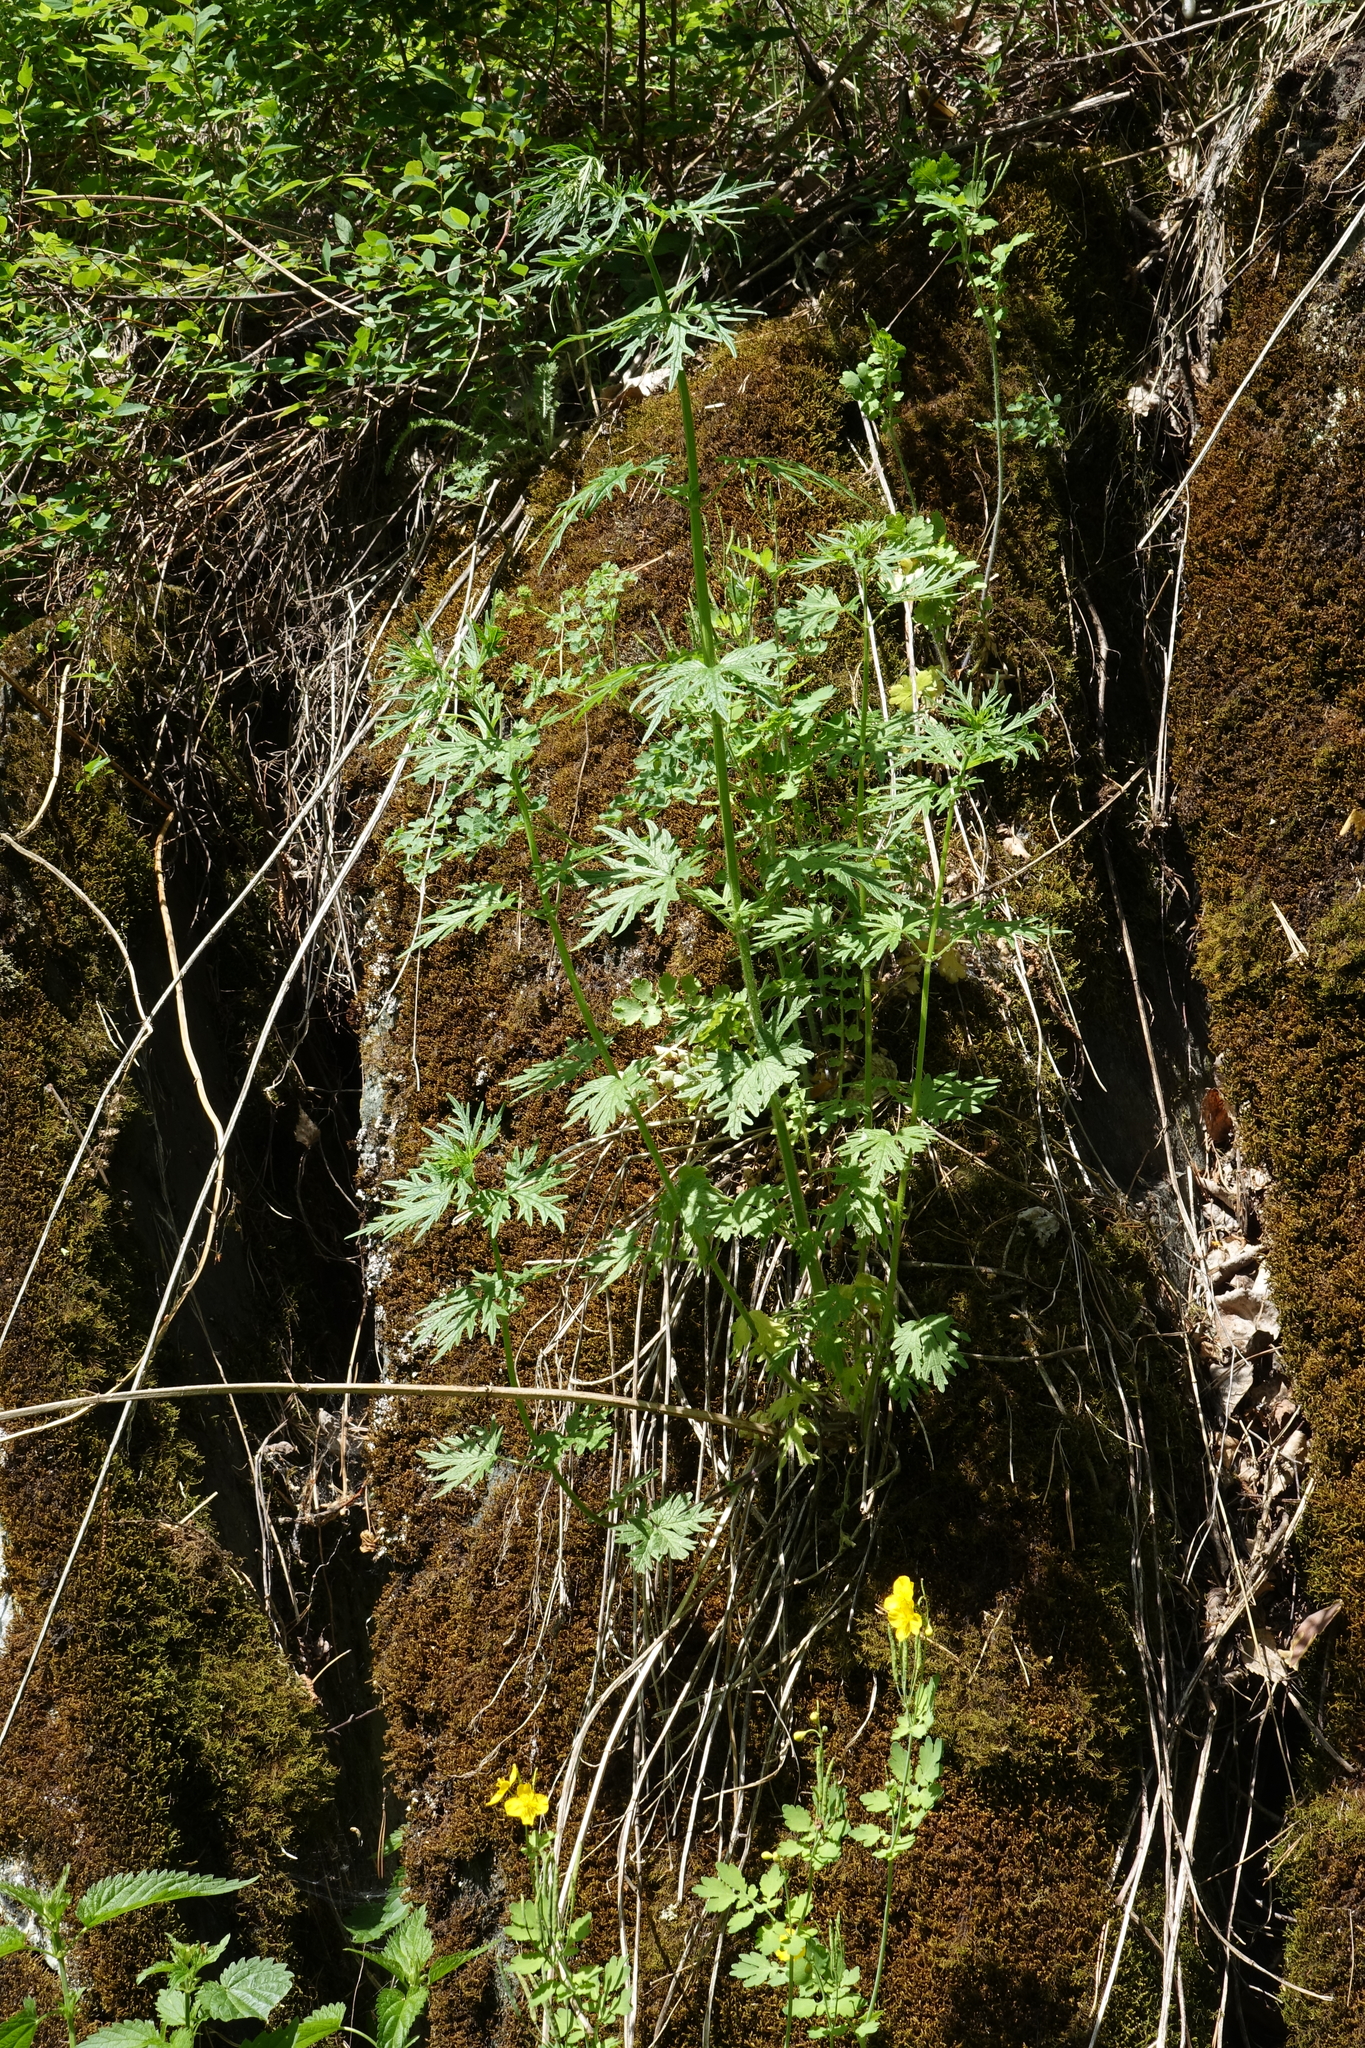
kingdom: Plantae
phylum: Tracheophyta
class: Magnoliopsida
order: Rosales
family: Urticaceae
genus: Urtica
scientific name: Urtica cannabina
